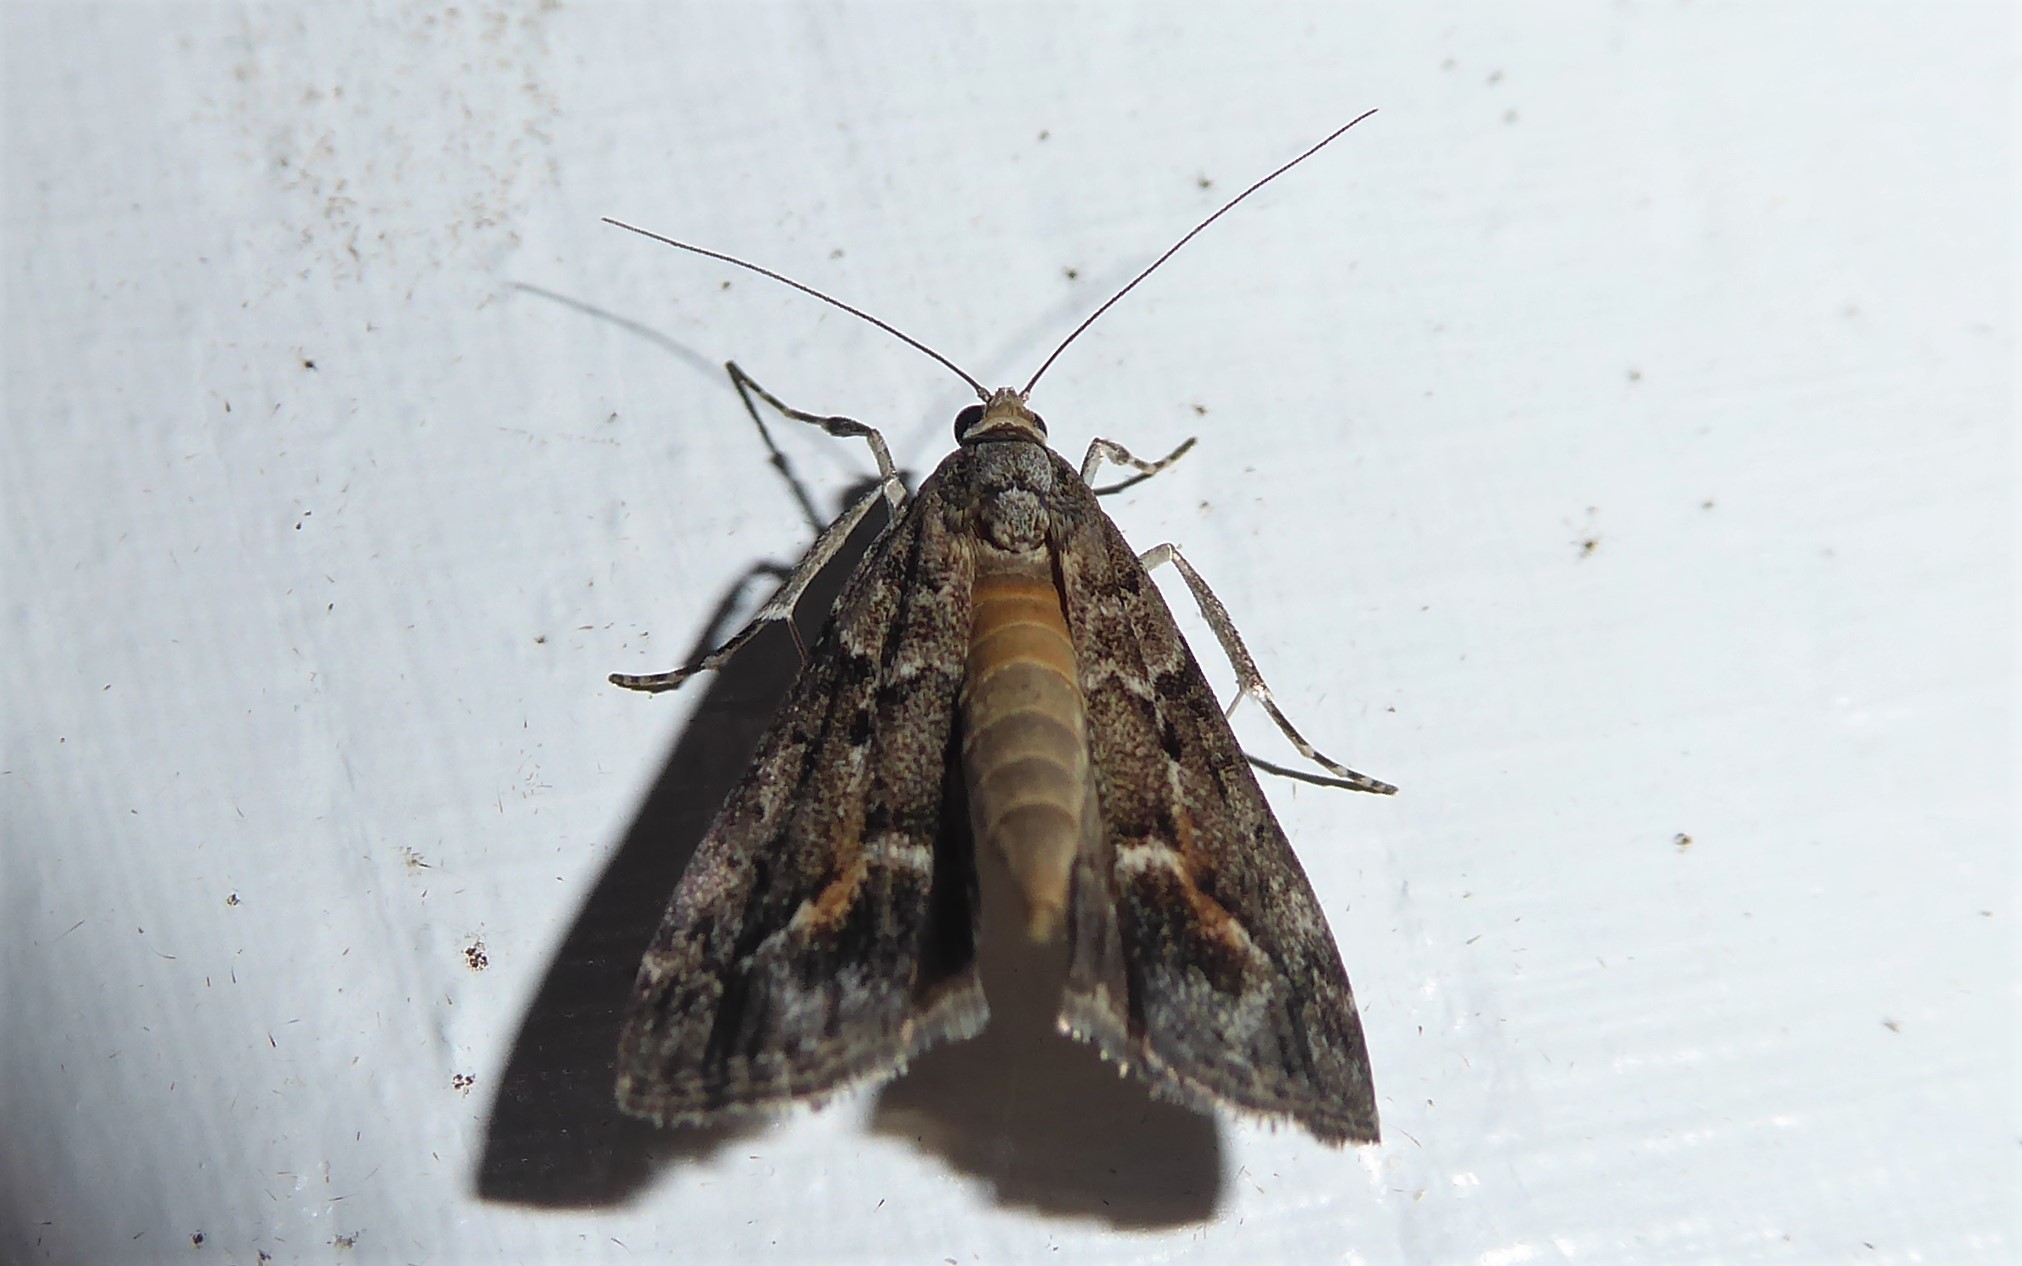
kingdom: Animalia
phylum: Arthropoda
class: Insecta
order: Lepidoptera
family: Crambidae
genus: Eudonia
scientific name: Eudonia submarginalis
